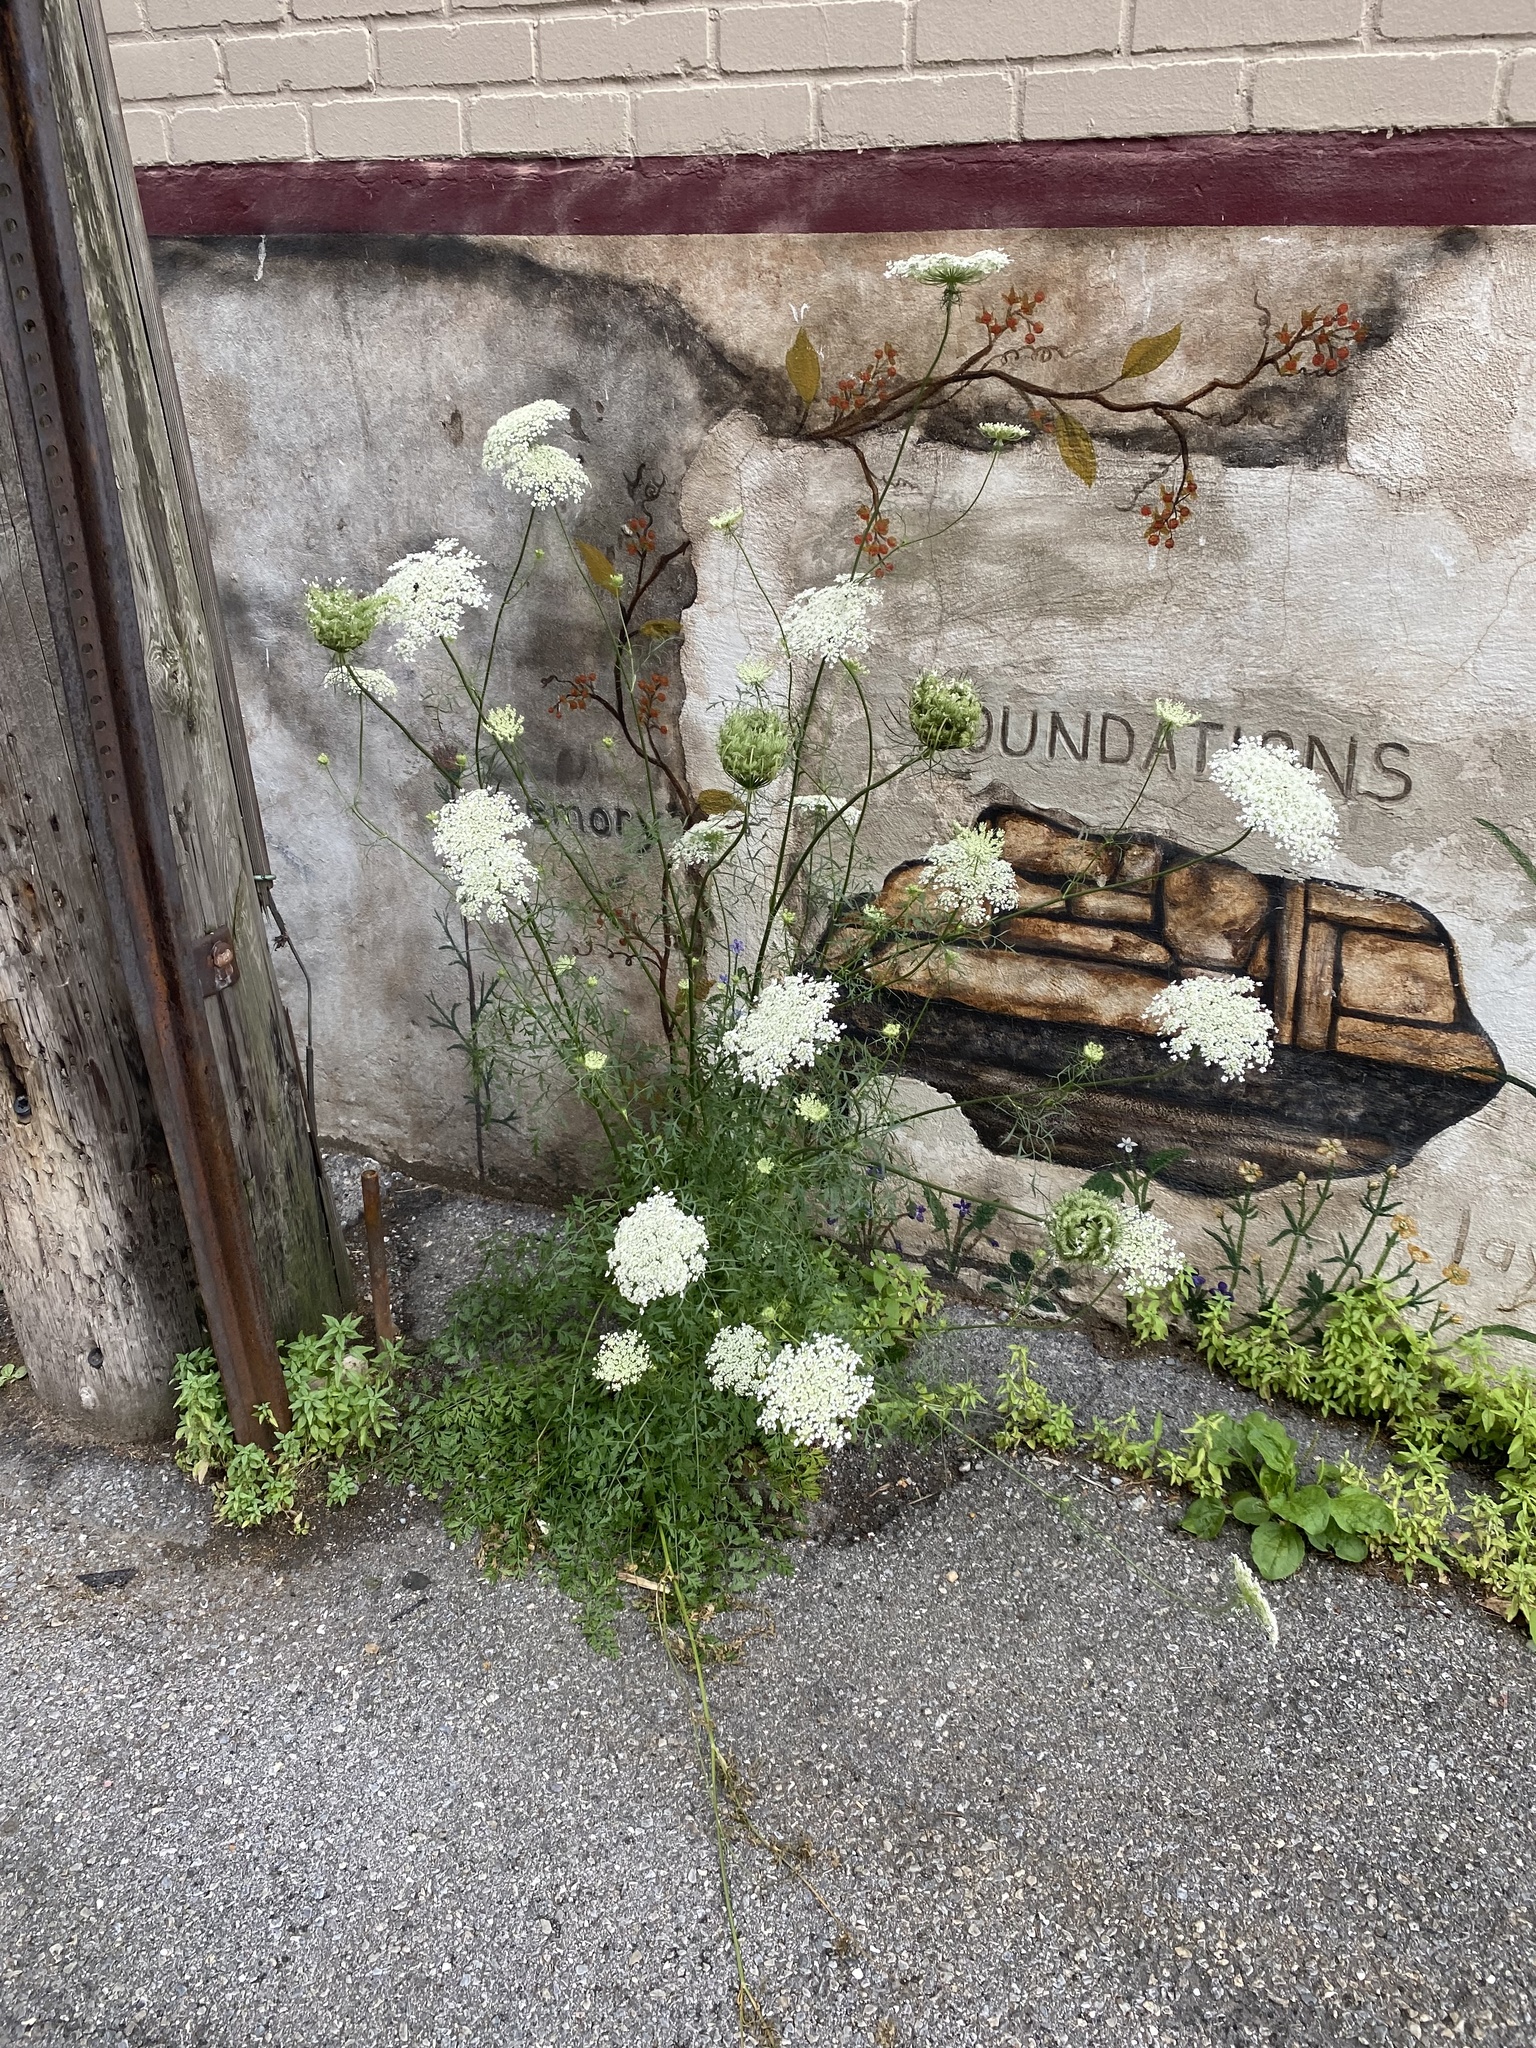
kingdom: Plantae
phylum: Tracheophyta
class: Magnoliopsida
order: Apiales
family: Apiaceae
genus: Daucus
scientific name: Daucus carota
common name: Wild carrot
